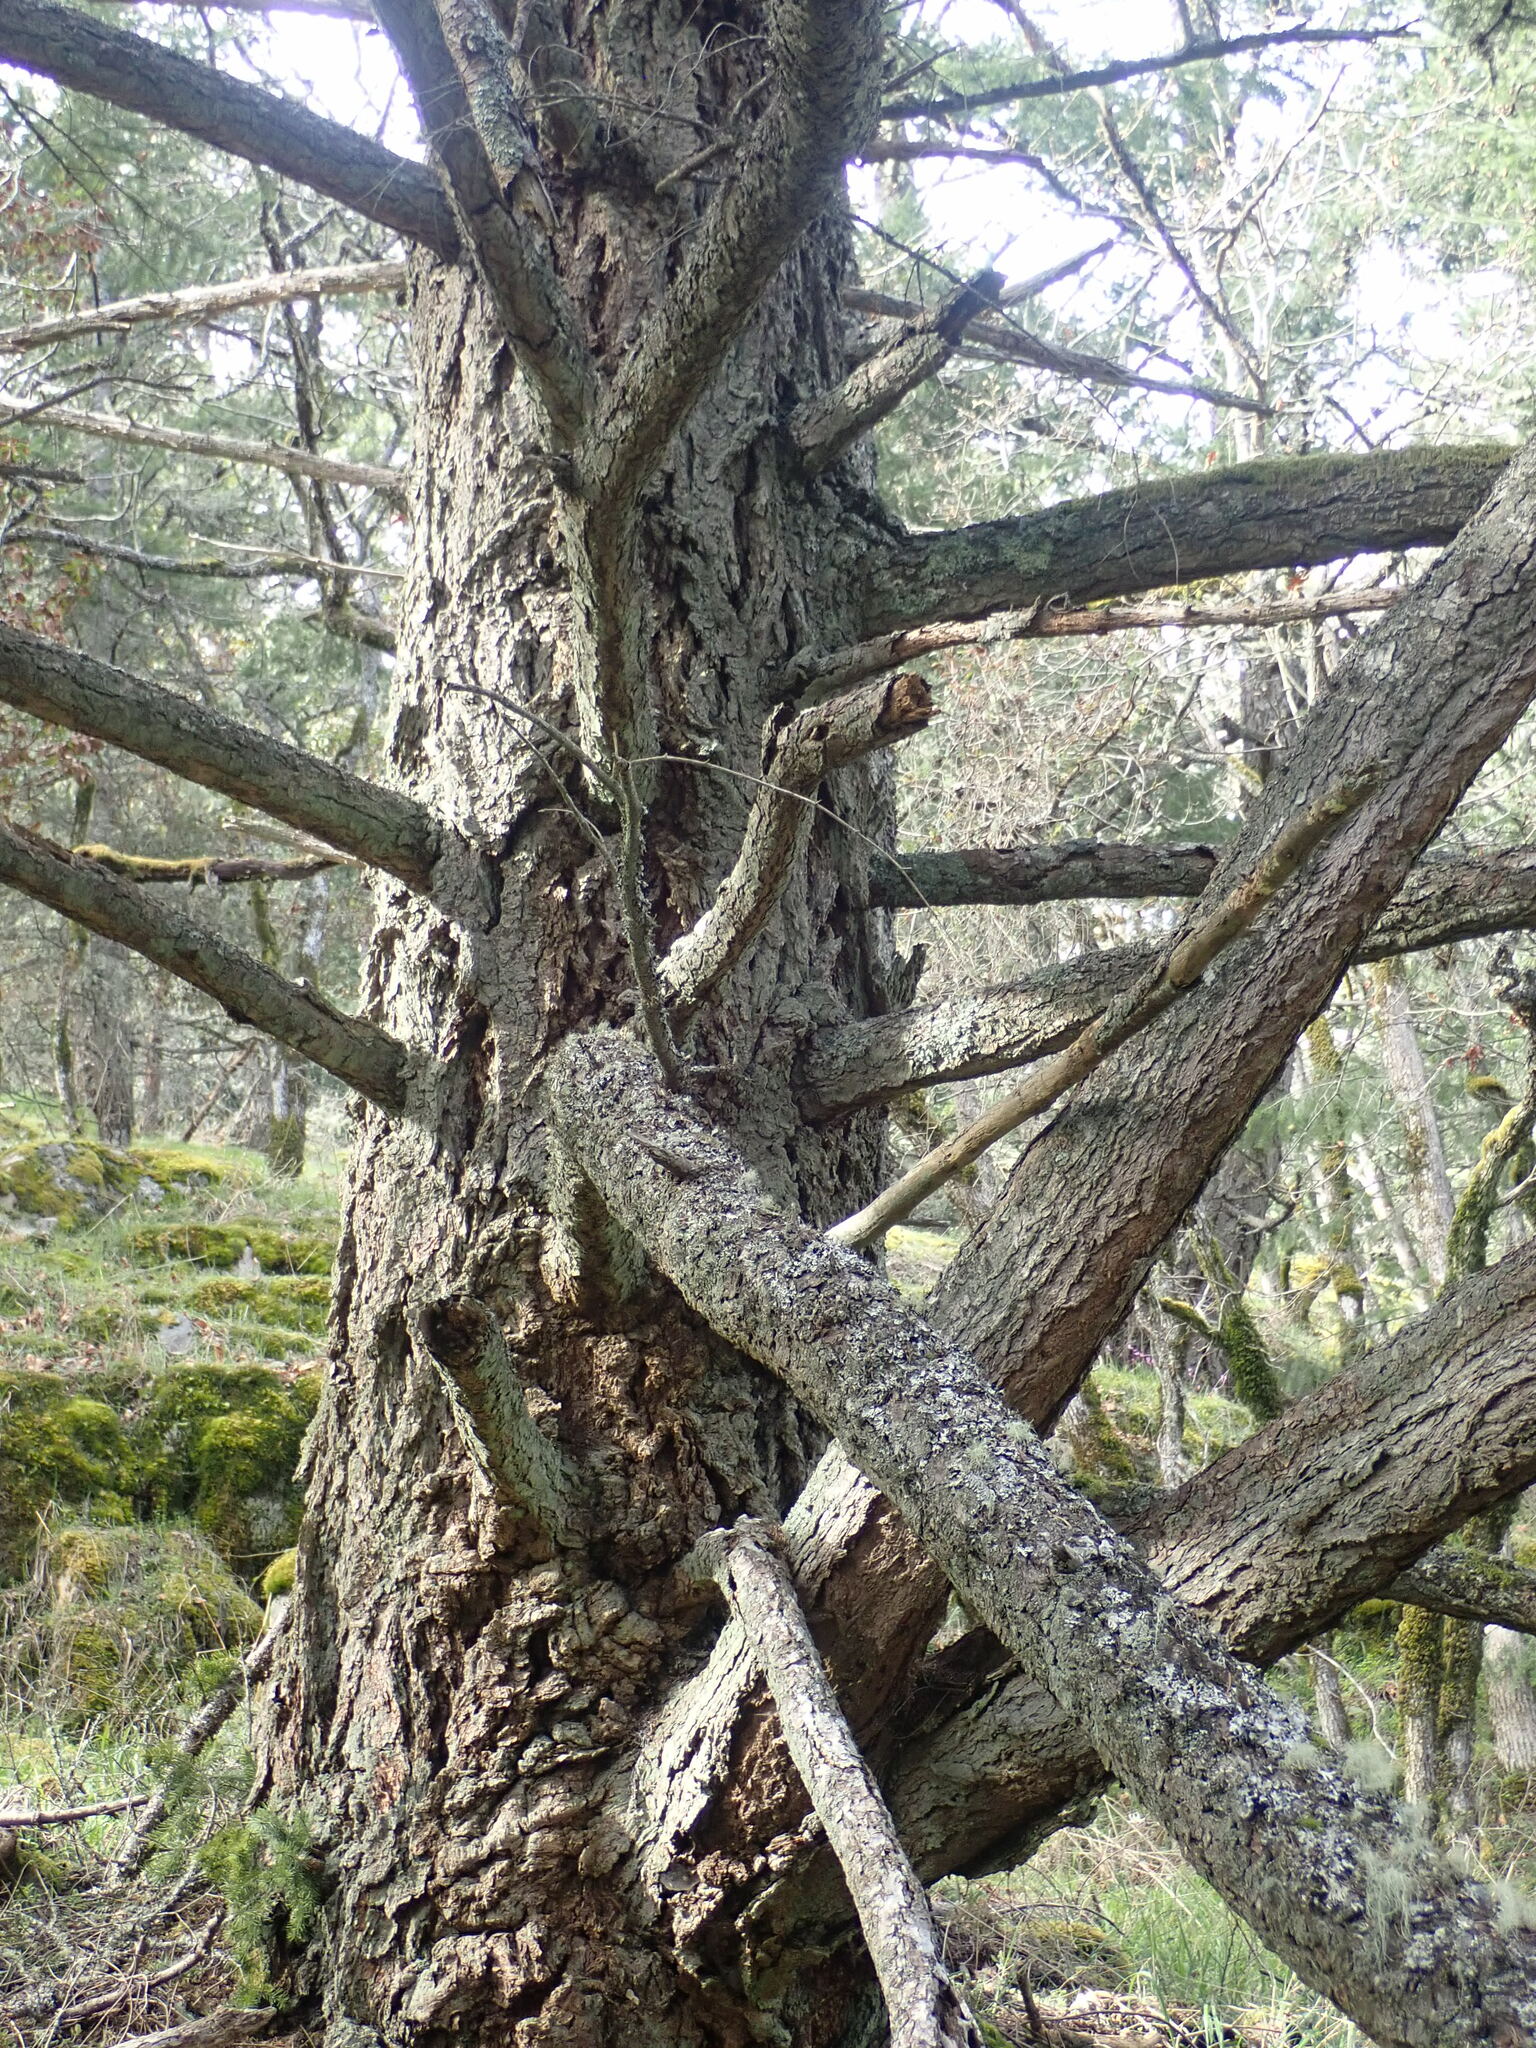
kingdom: Plantae
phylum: Tracheophyta
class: Pinopsida
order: Pinales
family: Pinaceae
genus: Pseudotsuga
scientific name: Pseudotsuga menziesii
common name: Douglas fir
